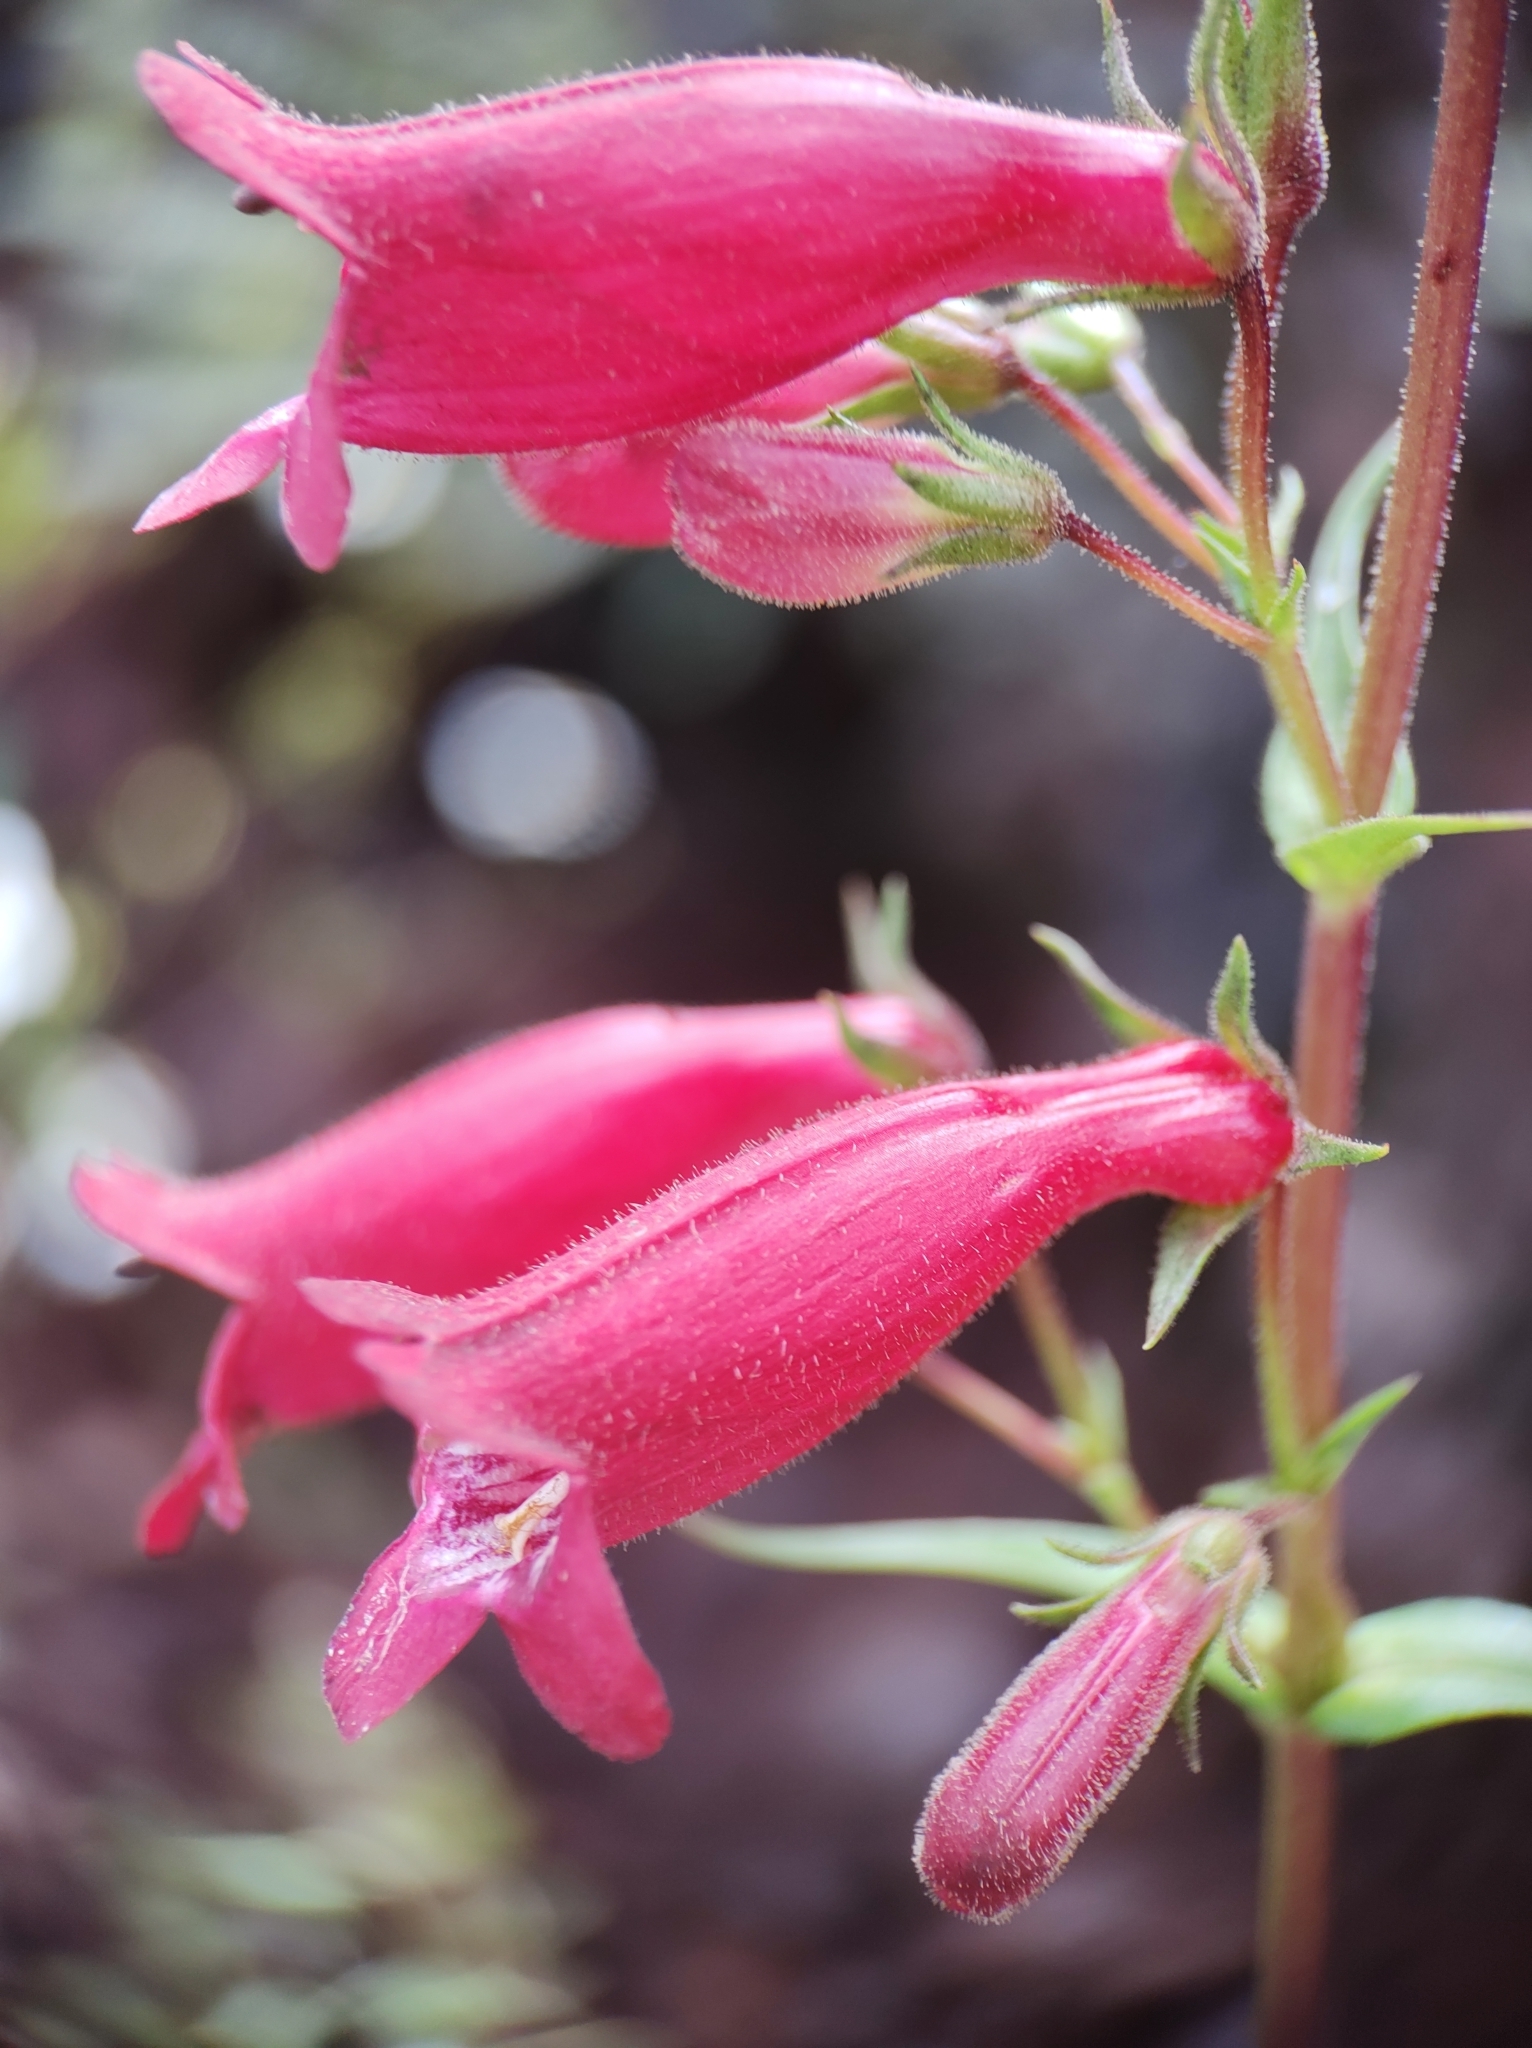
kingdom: Plantae
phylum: Tracheophyta
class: Magnoliopsida
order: Lamiales
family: Plantaginaceae
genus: Penstemon
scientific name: Penstemon roseus
